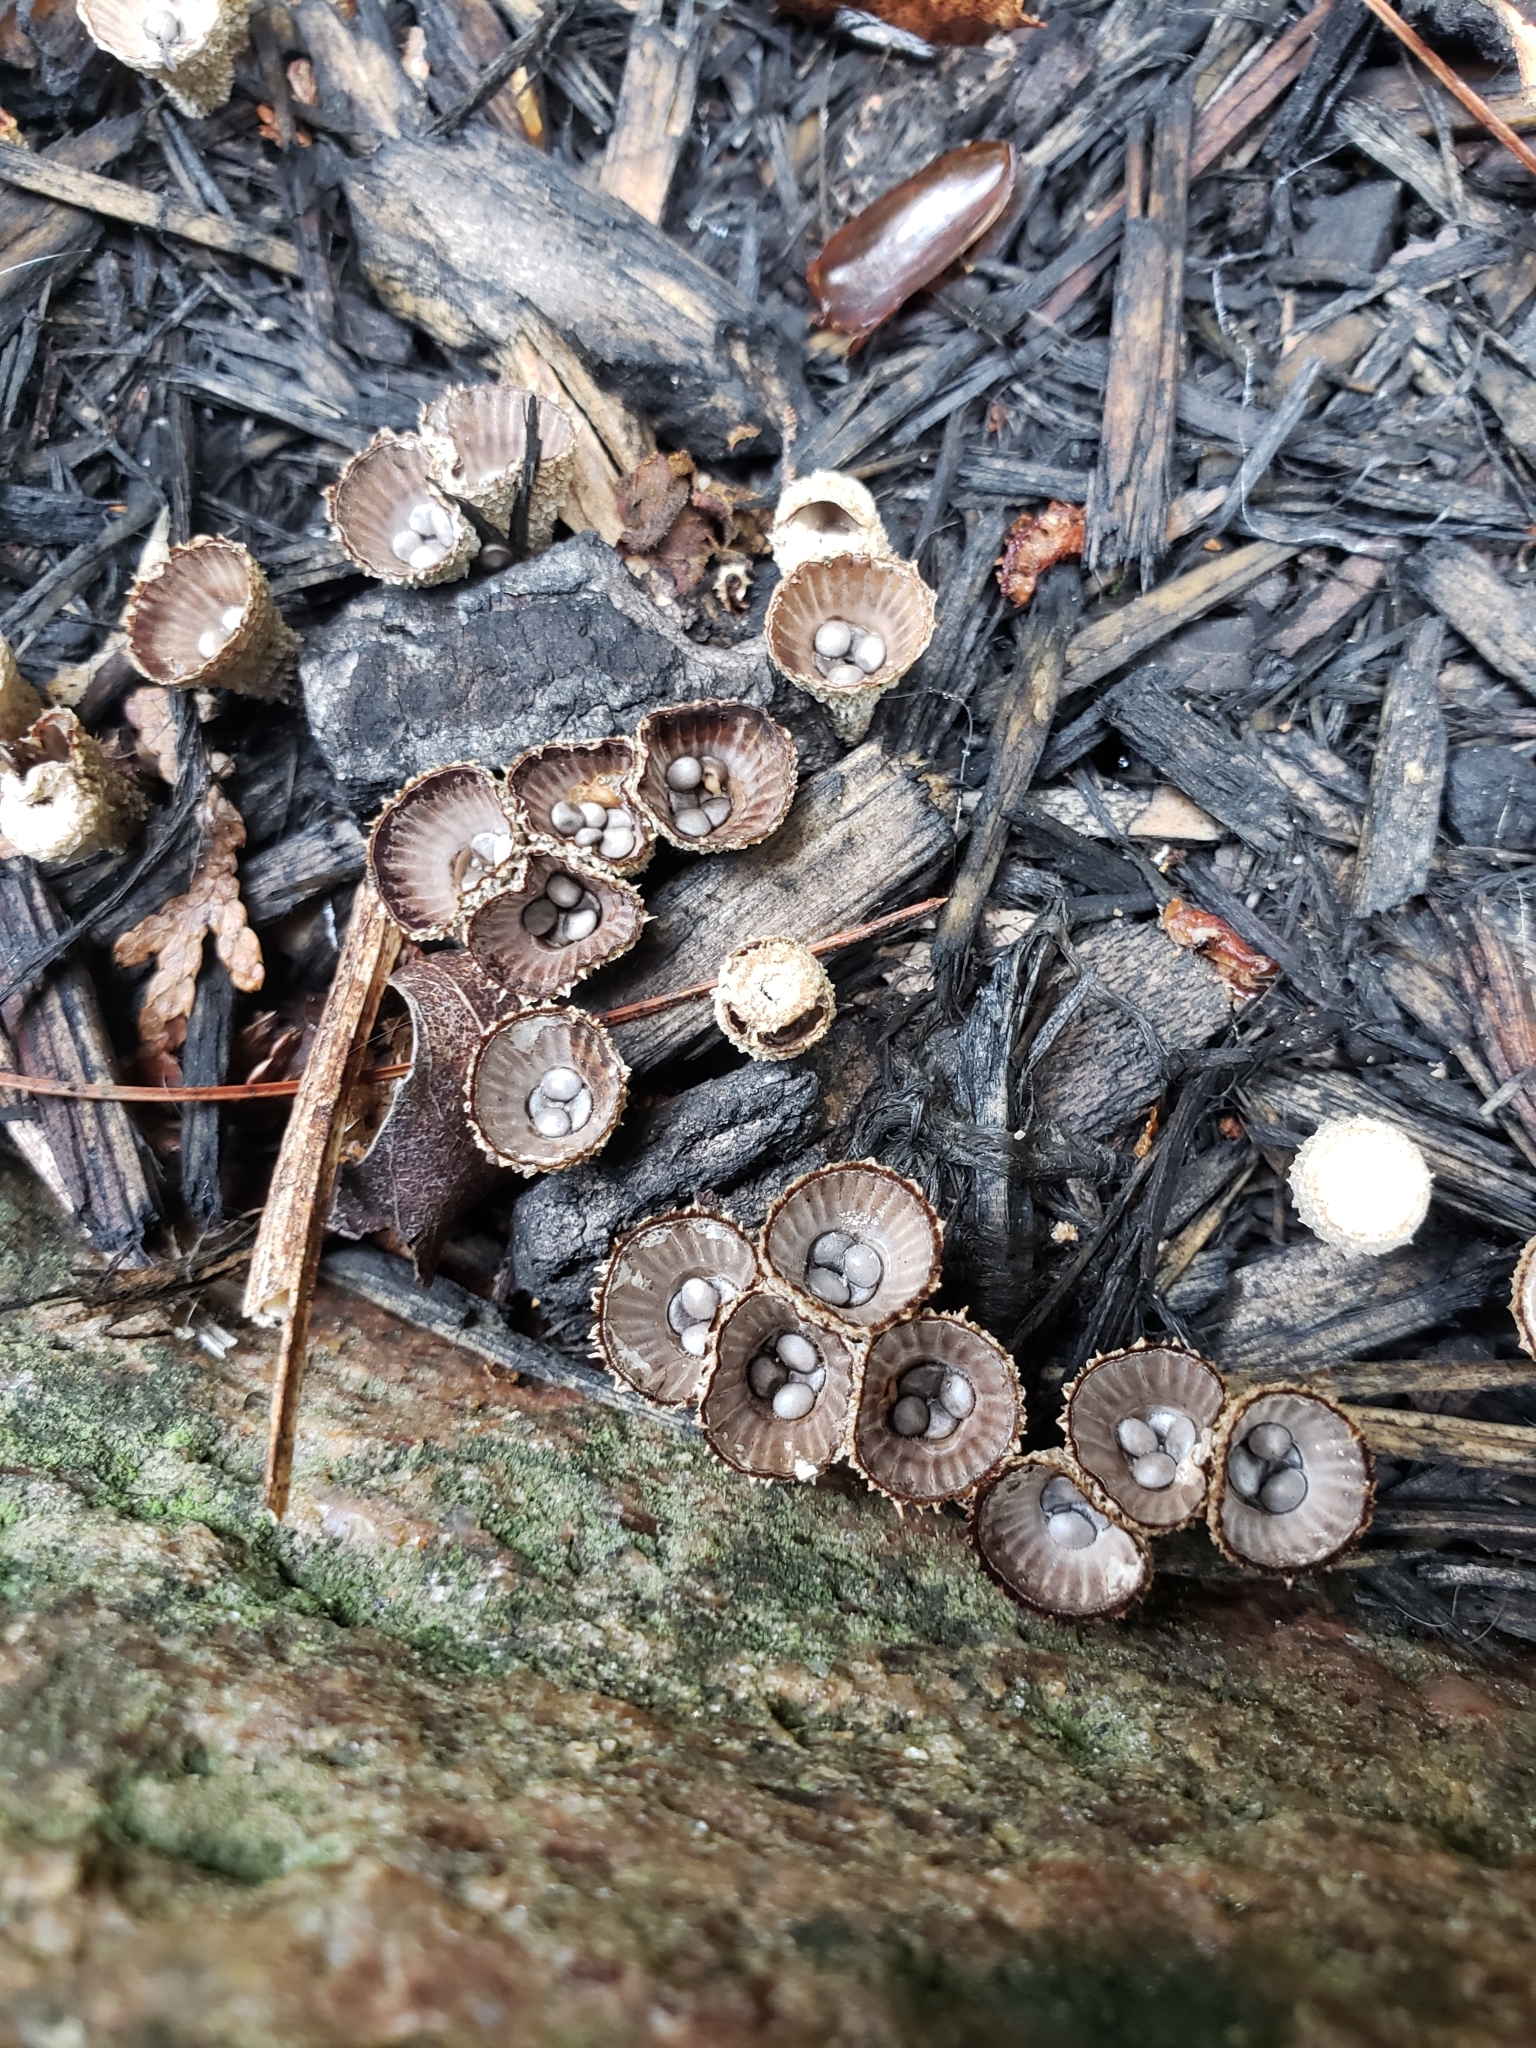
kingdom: Fungi
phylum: Basidiomycota
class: Agaricomycetes
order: Agaricales
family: Agaricaceae
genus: Cyathus
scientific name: Cyathus striatus
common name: Fluted bird's nest
